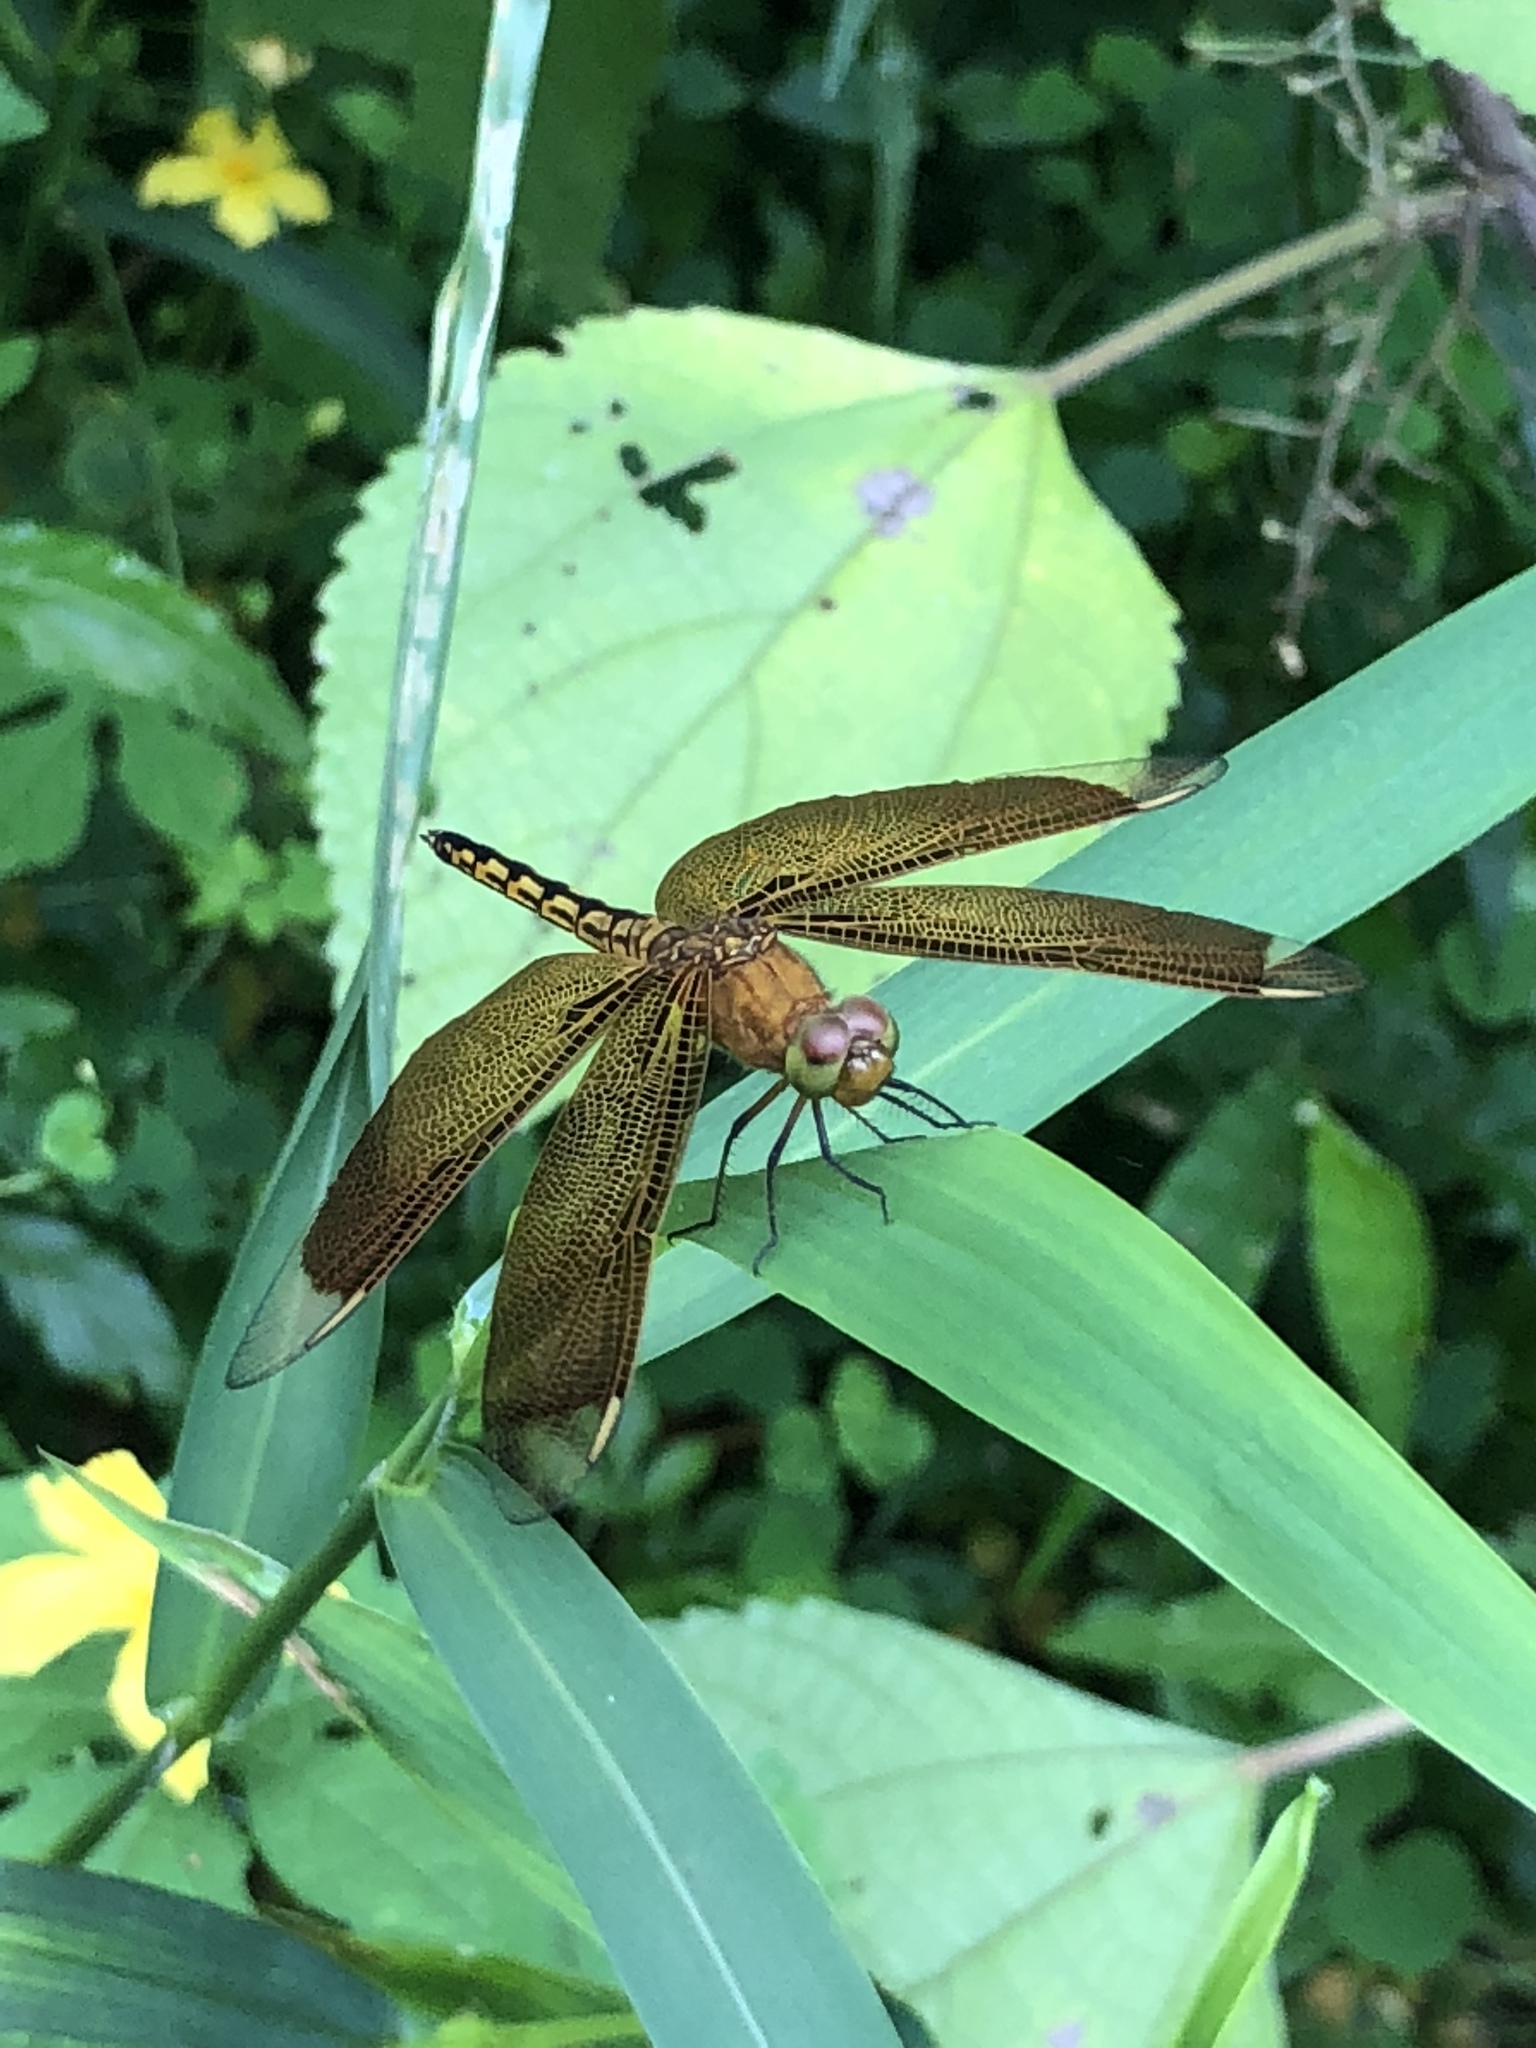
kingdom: Animalia
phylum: Arthropoda
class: Insecta
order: Odonata
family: Libellulidae
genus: Neurothemis
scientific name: Neurothemis taiwanensis
